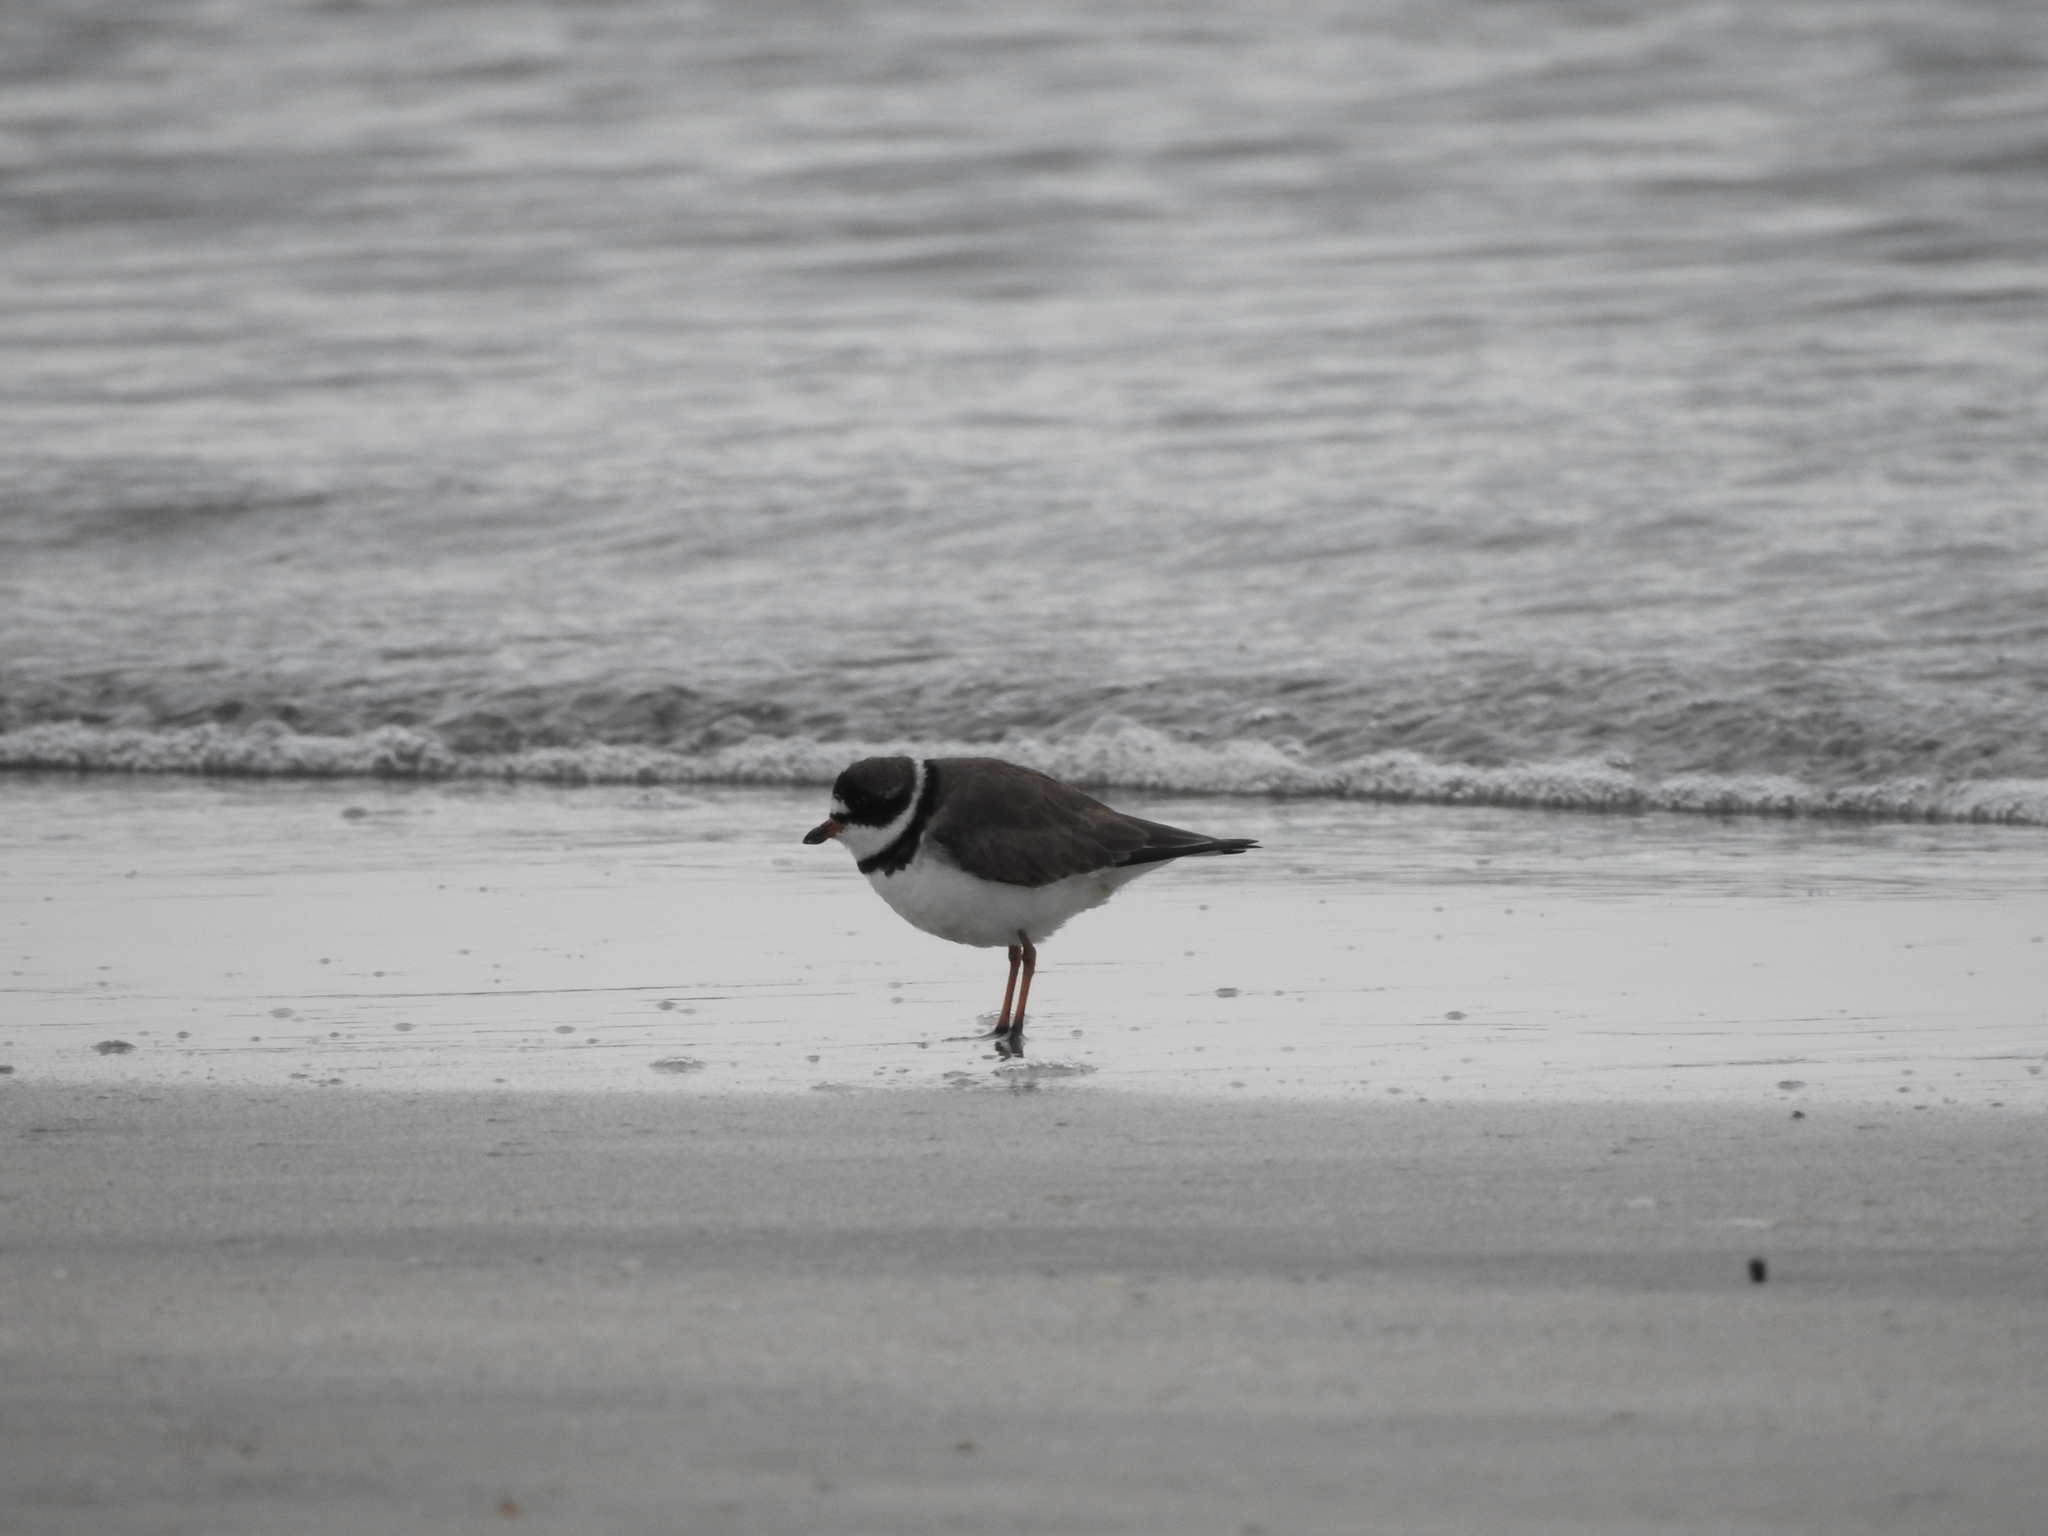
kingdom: Animalia
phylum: Chordata
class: Aves
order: Charadriiformes
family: Charadriidae
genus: Charadrius
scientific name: Charadrius semipalmatus
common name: Semipalmated plover
